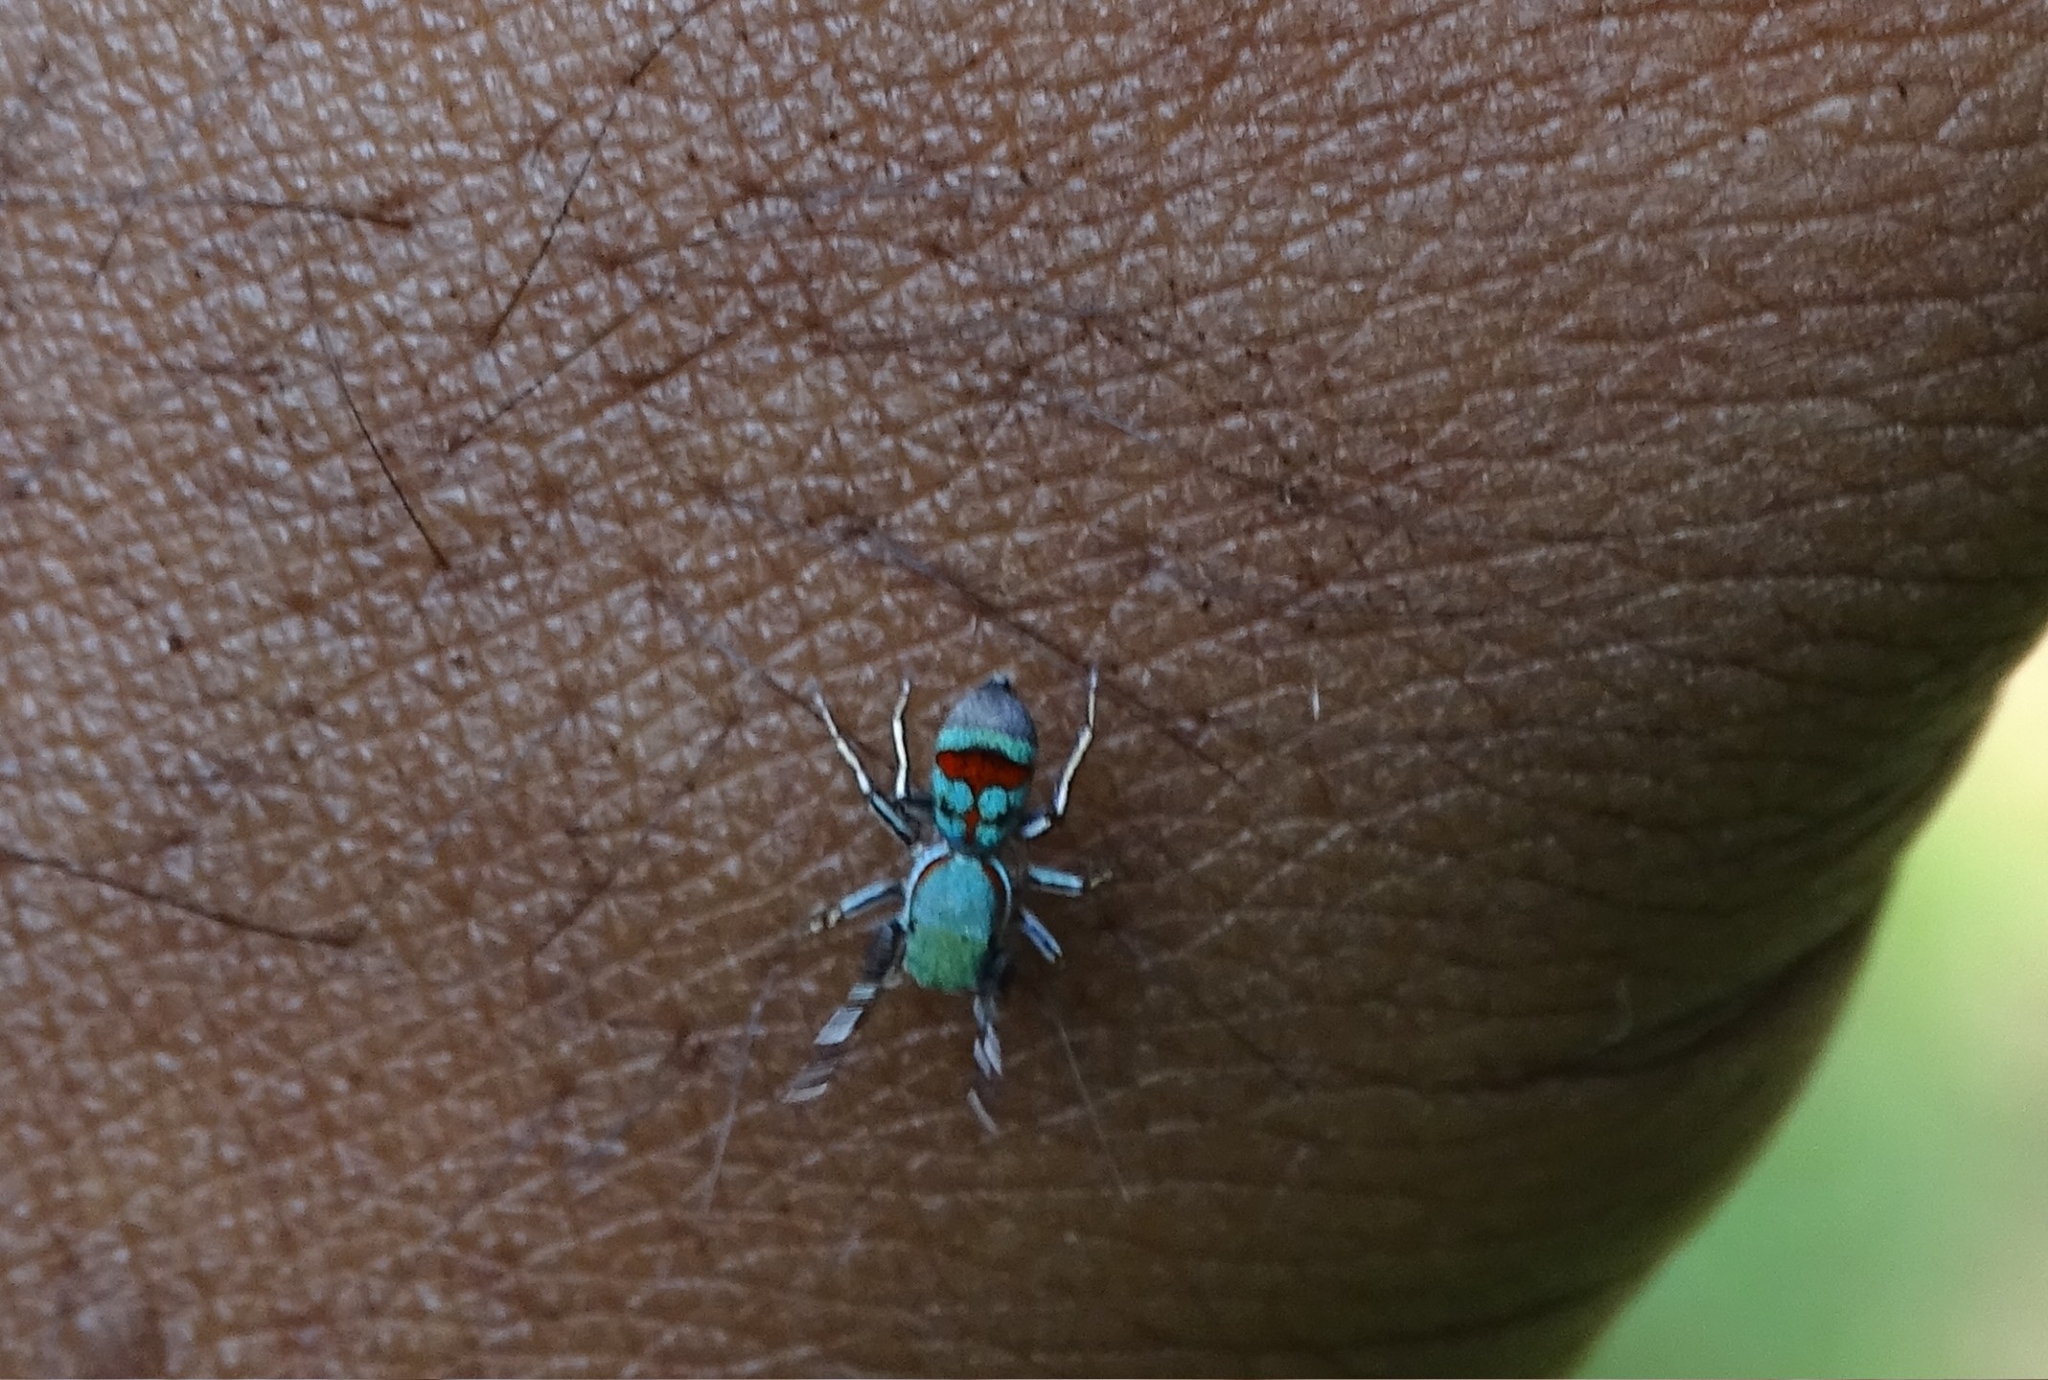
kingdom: Animalia
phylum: Arthropoda
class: Arachnida
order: Araneae
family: Salticidae
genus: Siler
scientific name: Siler semiglaucus
